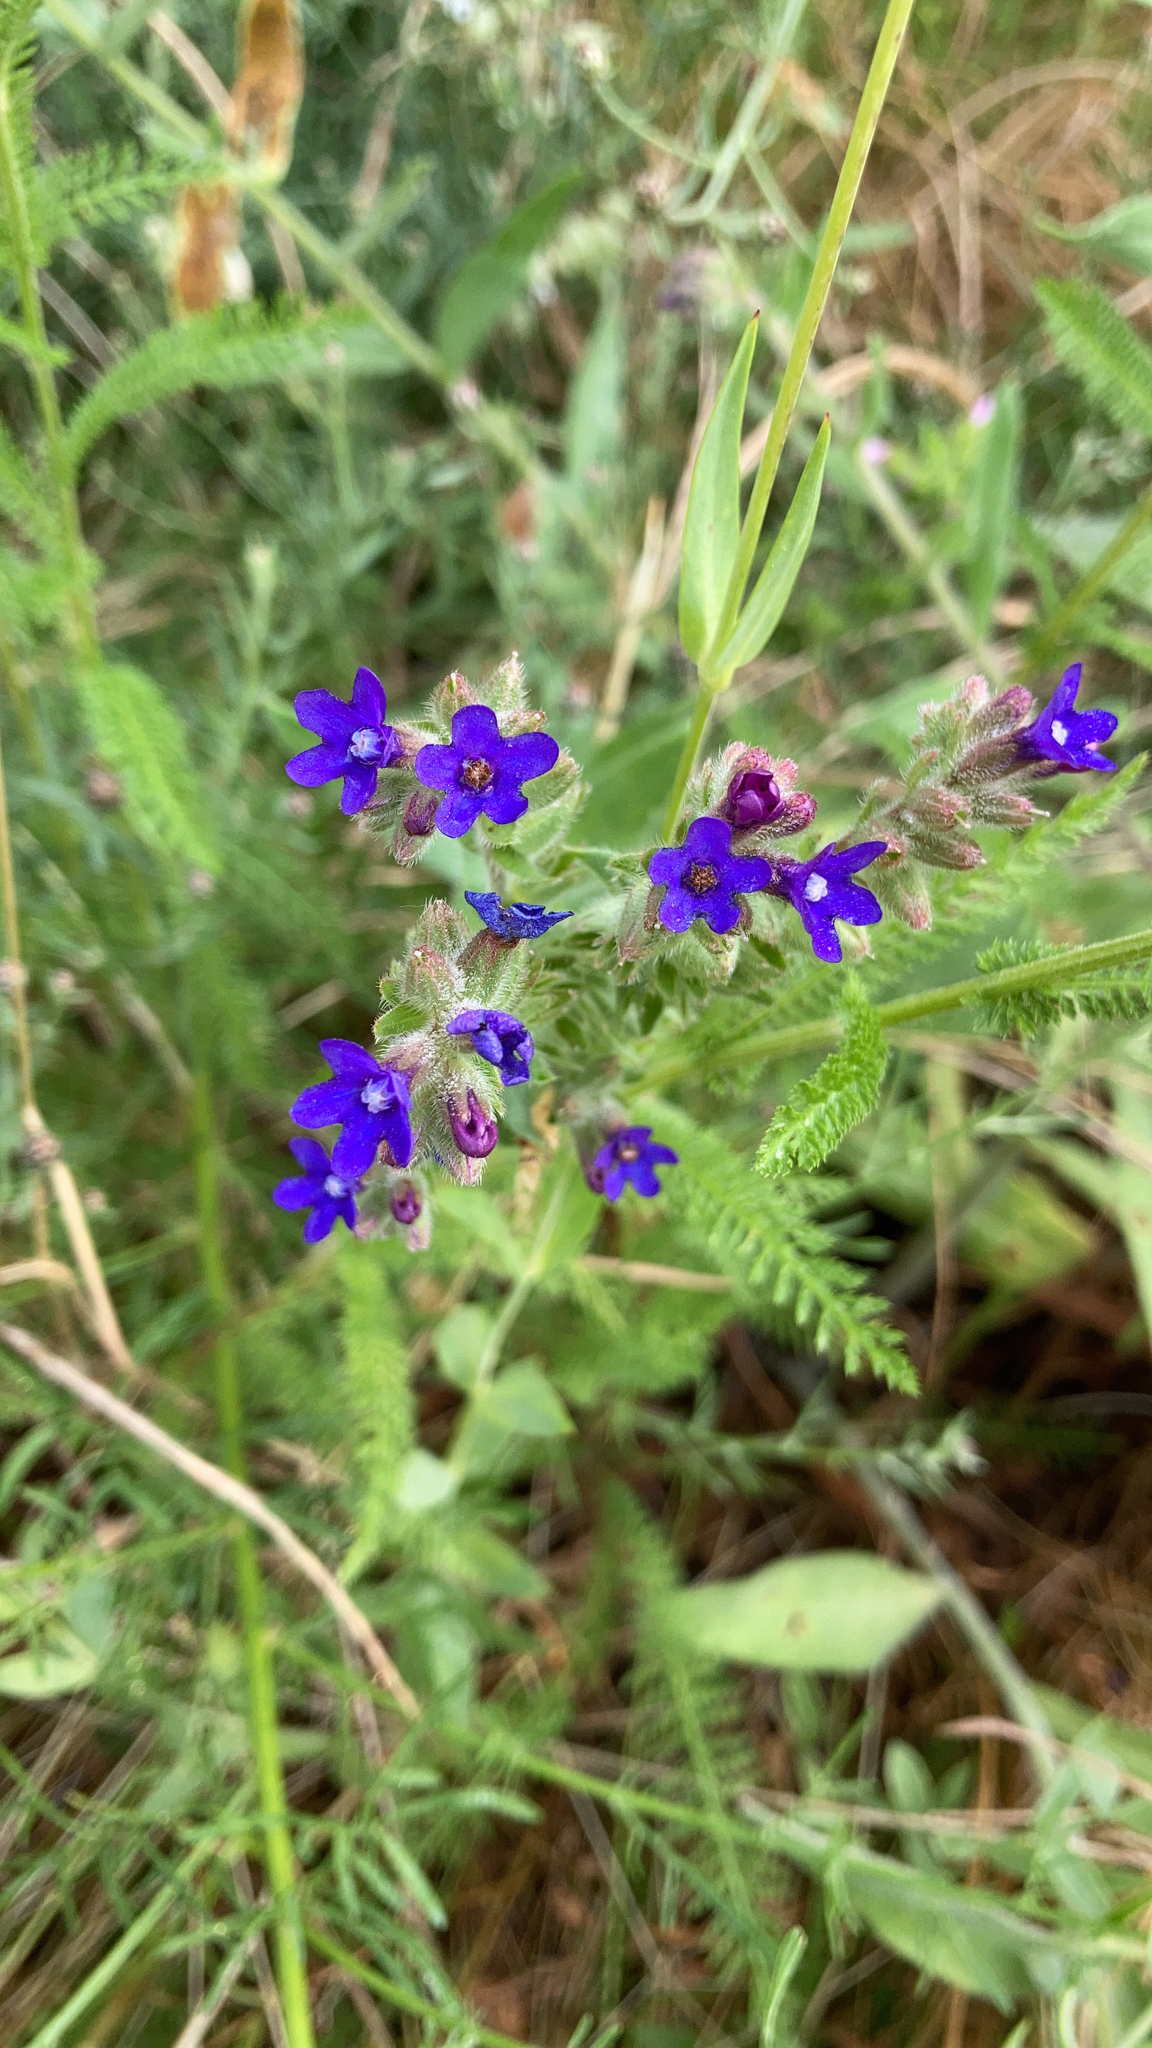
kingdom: Plantae
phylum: Tracheophyta
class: Magnoliopsida
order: Boraginales
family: Boraginaceae
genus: Anchusa
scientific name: Anchusa officinalis
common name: Alkanet
